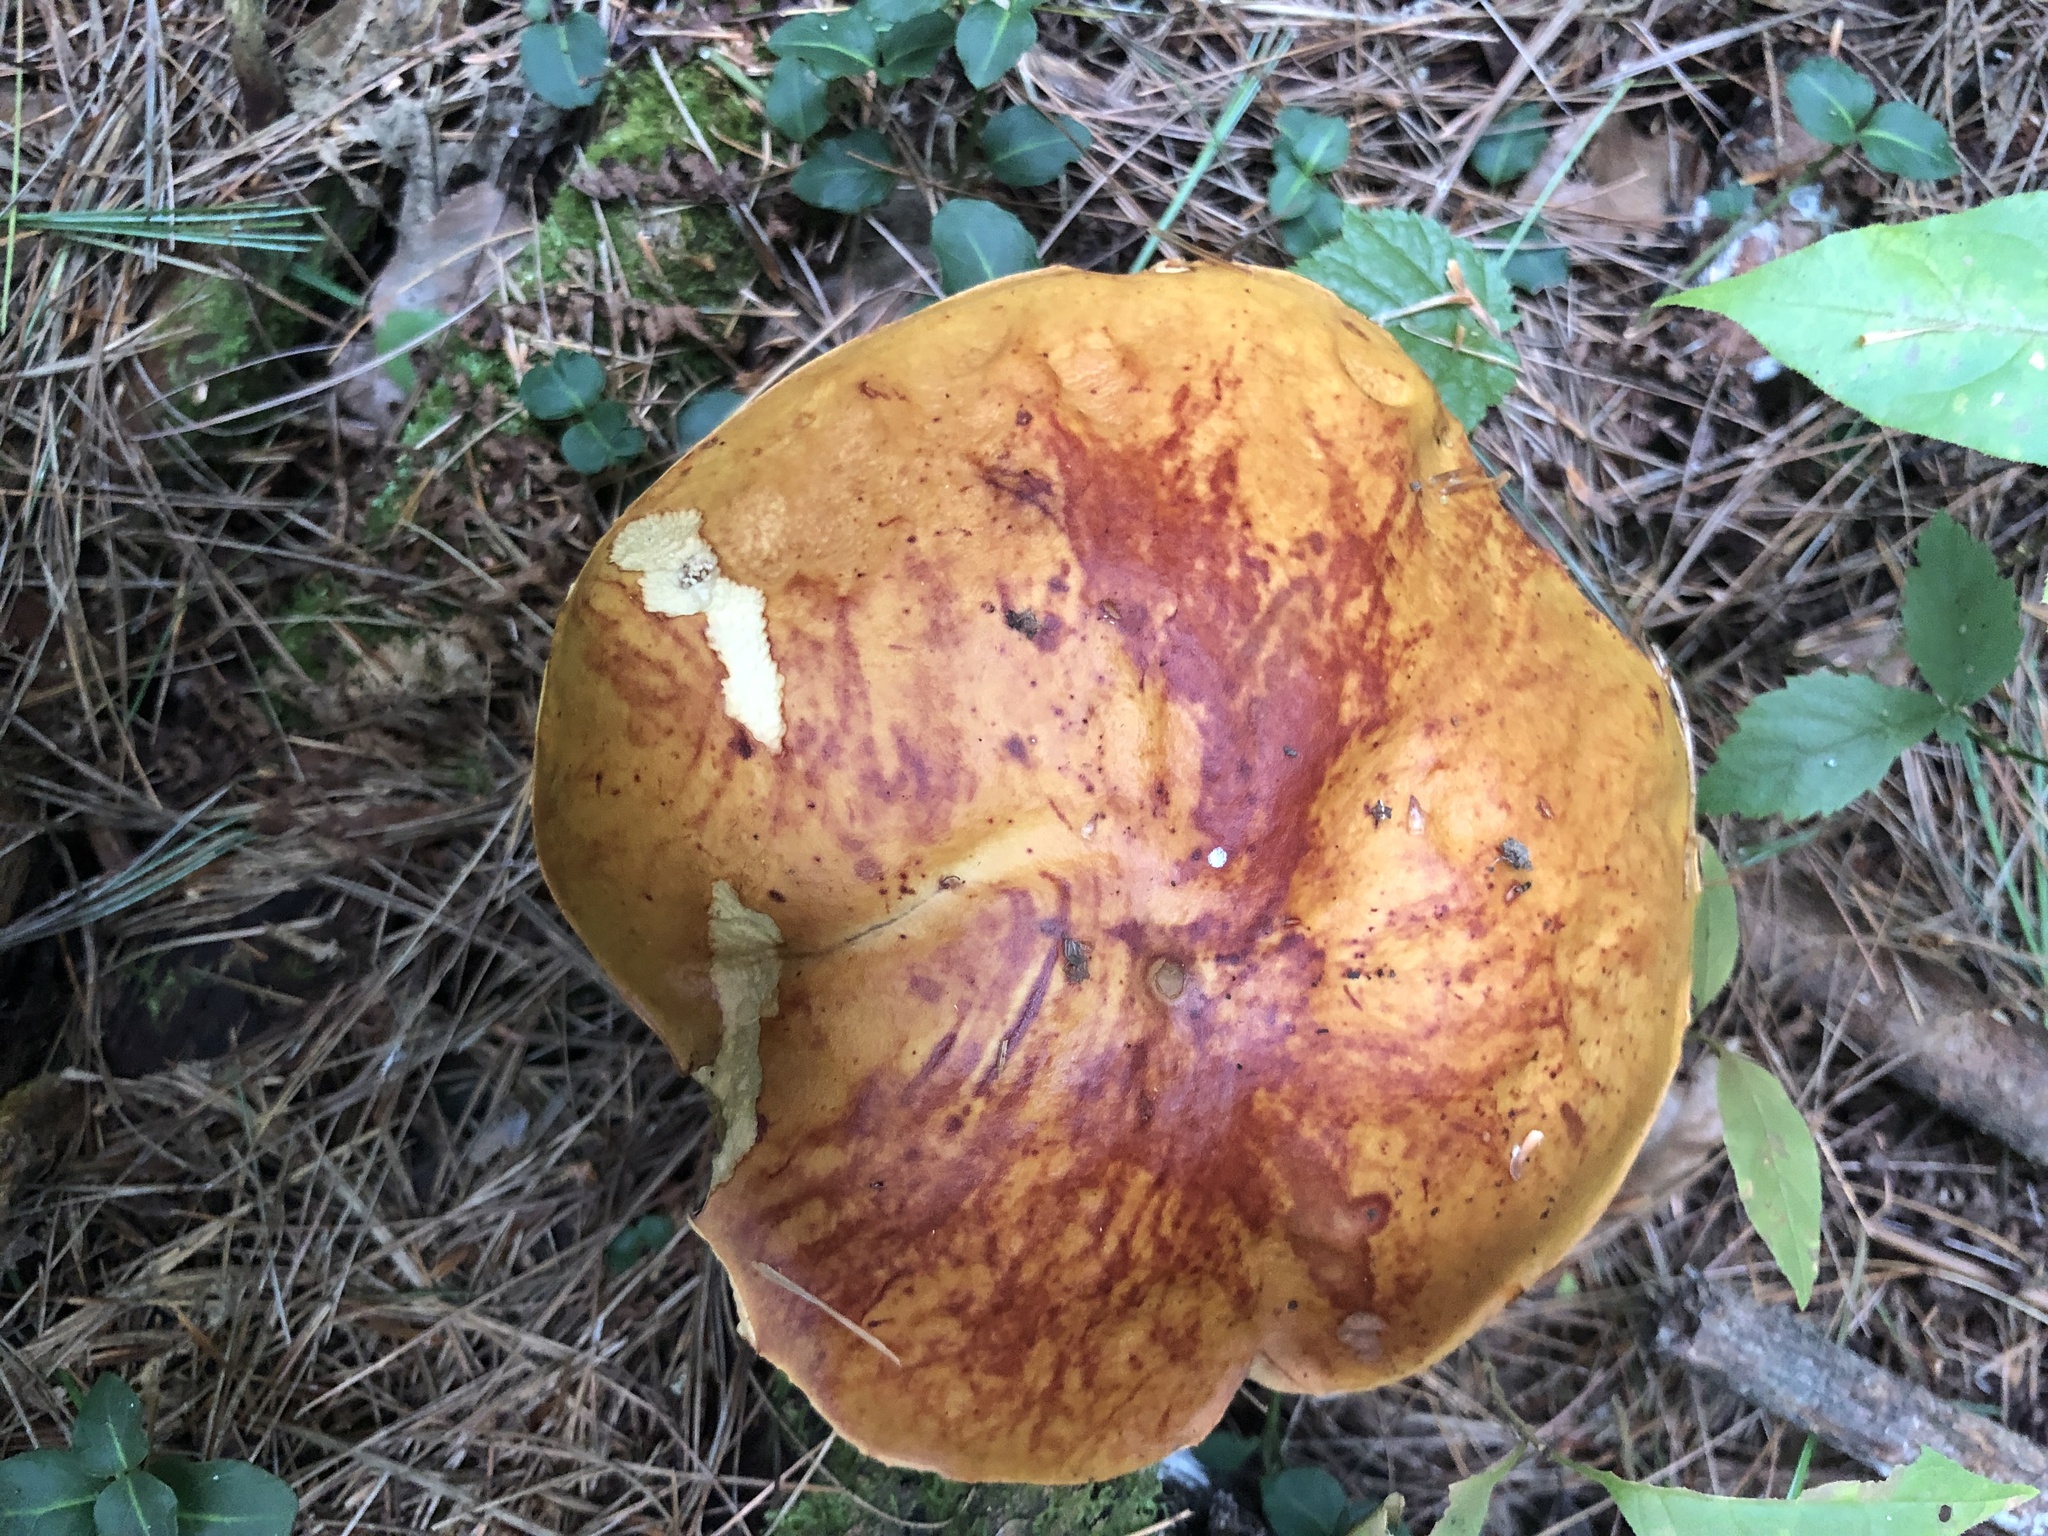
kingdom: Fungi
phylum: Basidiomycota
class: Agaricomycetes
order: Boletales
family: Boletaceae
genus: Boletus
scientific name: Boletus chippewaensis
